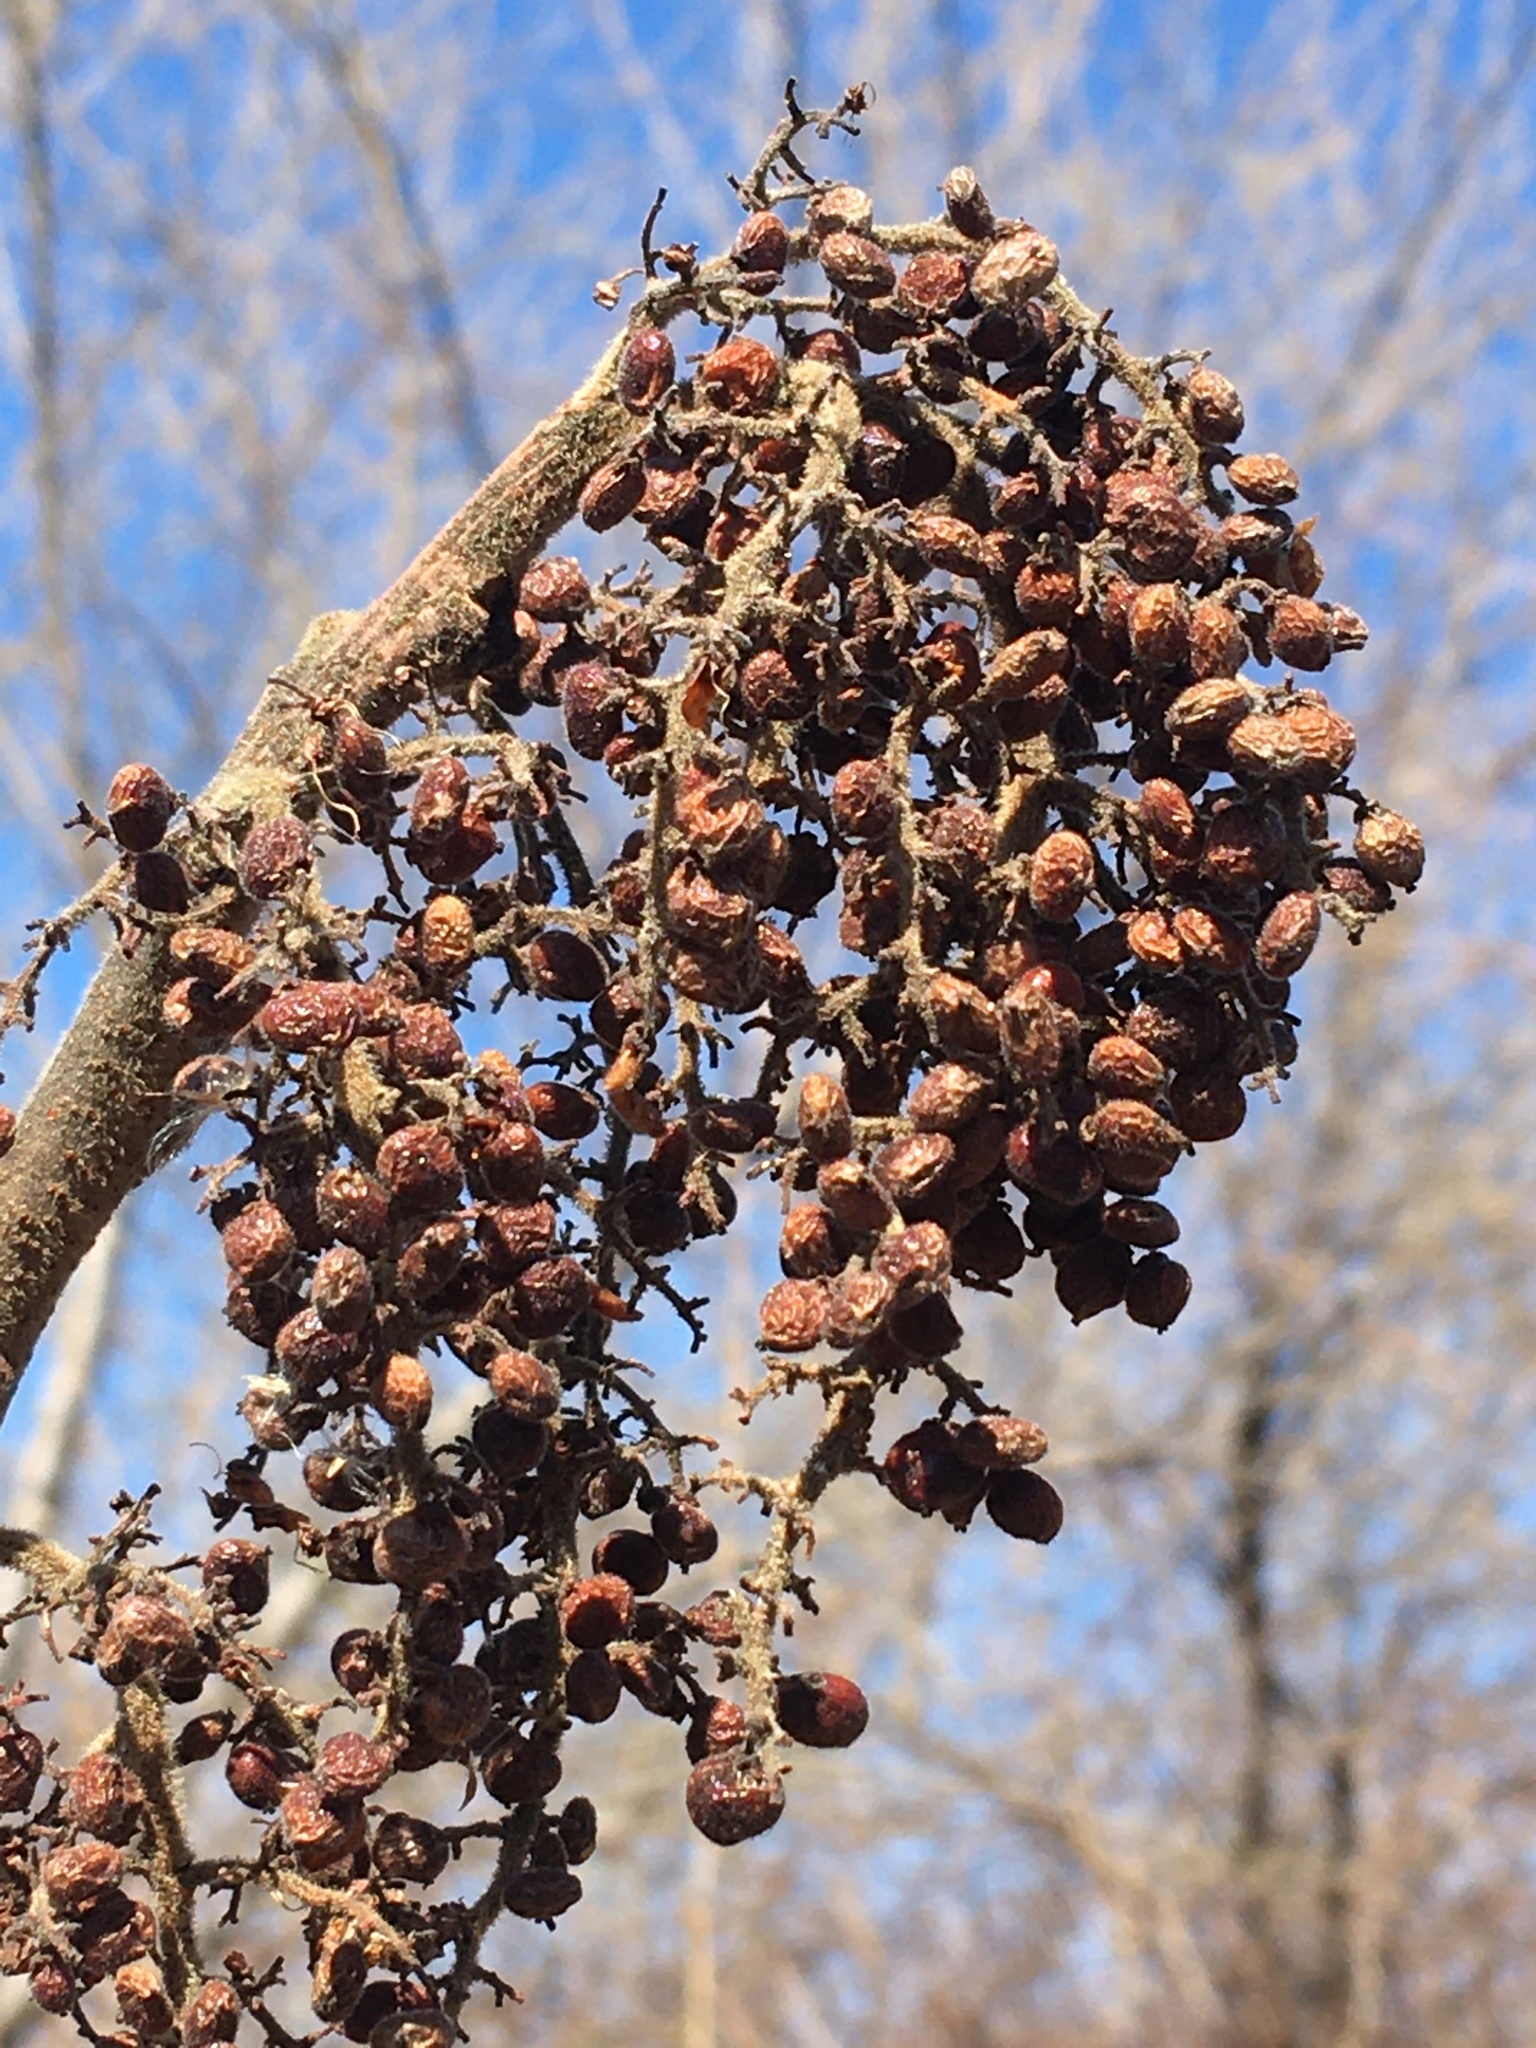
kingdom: Plantae
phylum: Tracheophyta
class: Magnoliopsida
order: Sapindales
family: Anacardiaceae
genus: Rhus
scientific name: Rhus copallina
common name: Shining sumac
